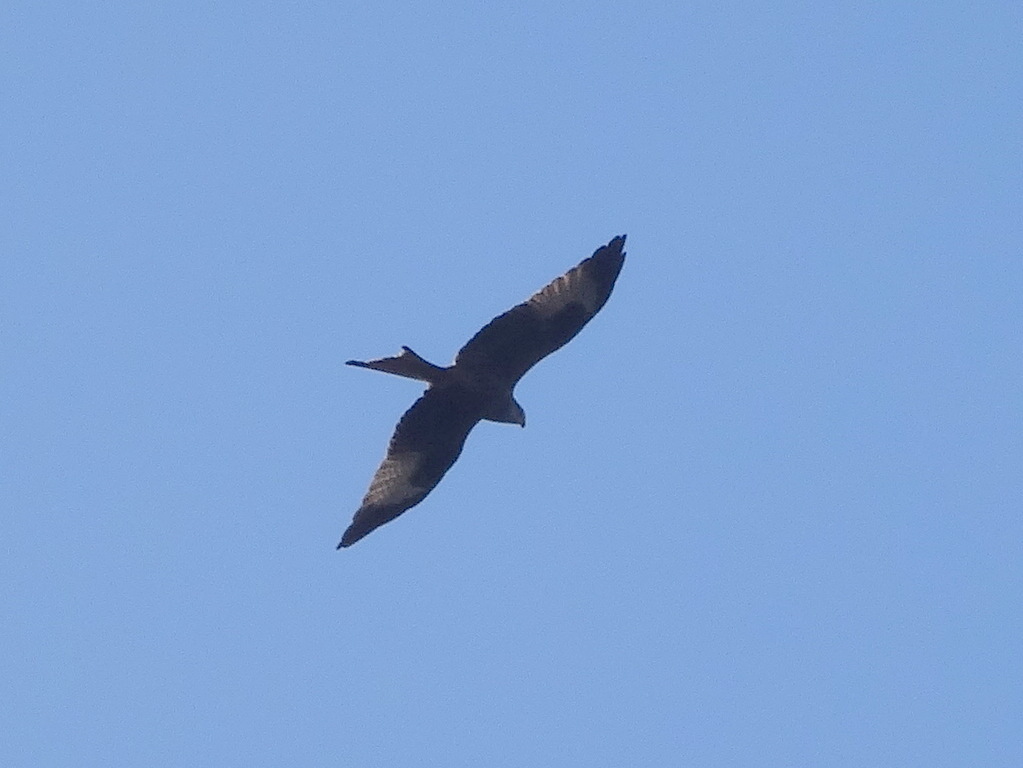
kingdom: Animalia
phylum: Chordata
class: Aves
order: Accipitriformes
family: Accipitridae
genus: Milvus
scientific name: Milvus milvus
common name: Red kite
